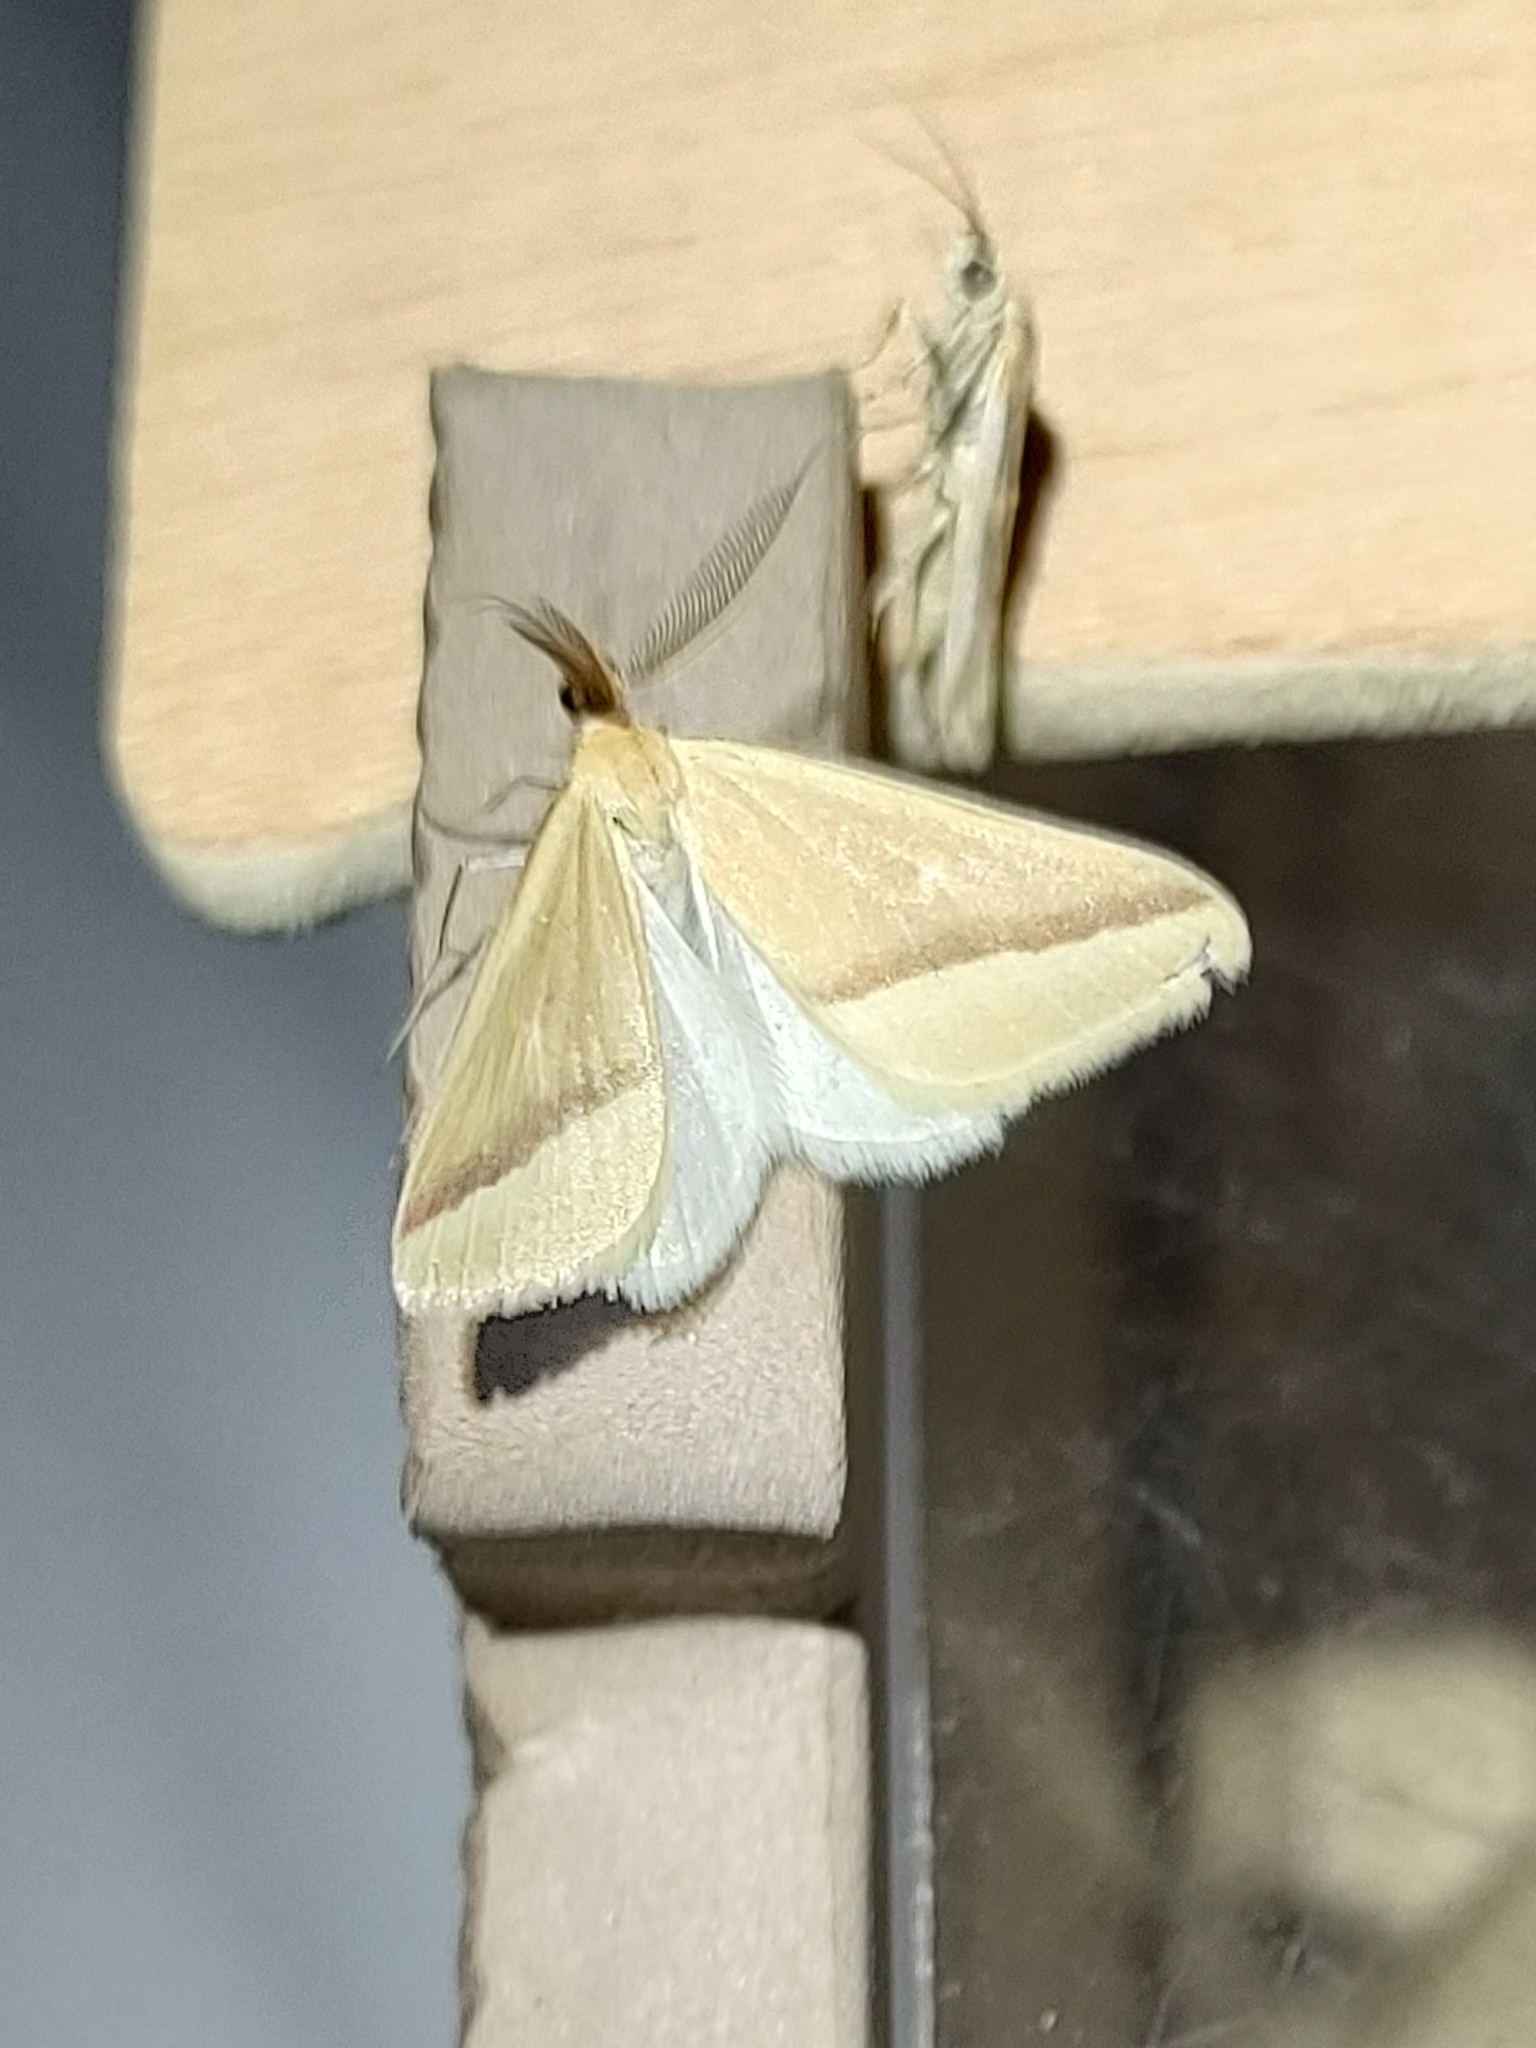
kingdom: Animalia
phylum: Arthropoda
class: Insecta
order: Lepidoptera
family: Geometridae
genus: Rhodometra
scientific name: Rhodometra sacraria
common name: Vestal
